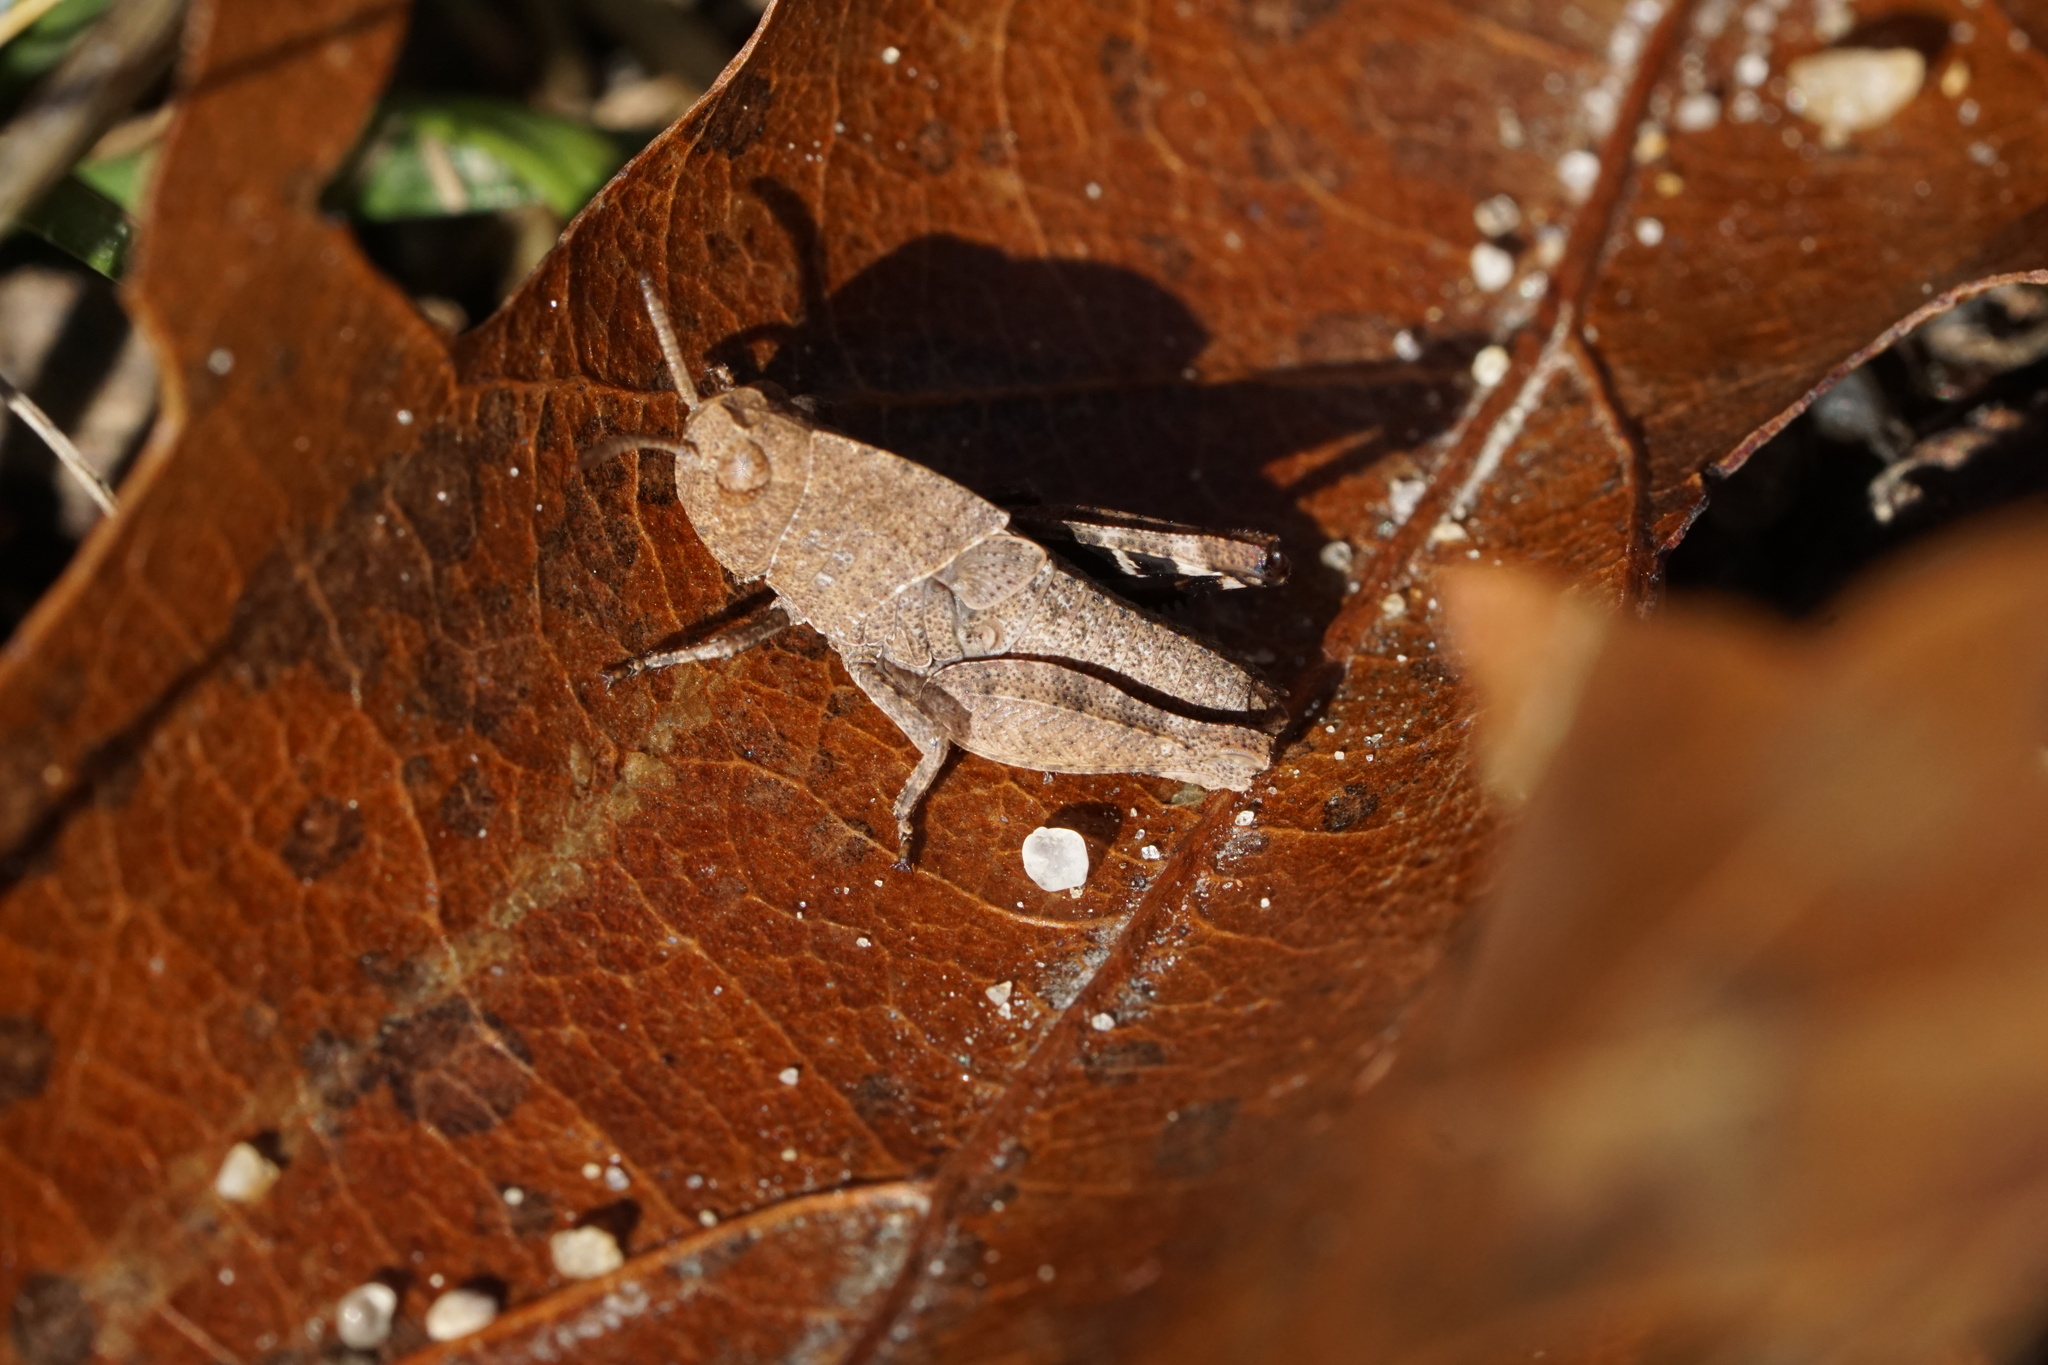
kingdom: Animalia
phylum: Arthropoda
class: Insecta
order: Orthoptera
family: Acrididae
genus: Arphia
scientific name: Arphia sulphurea
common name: Spring yellow-winged locust
